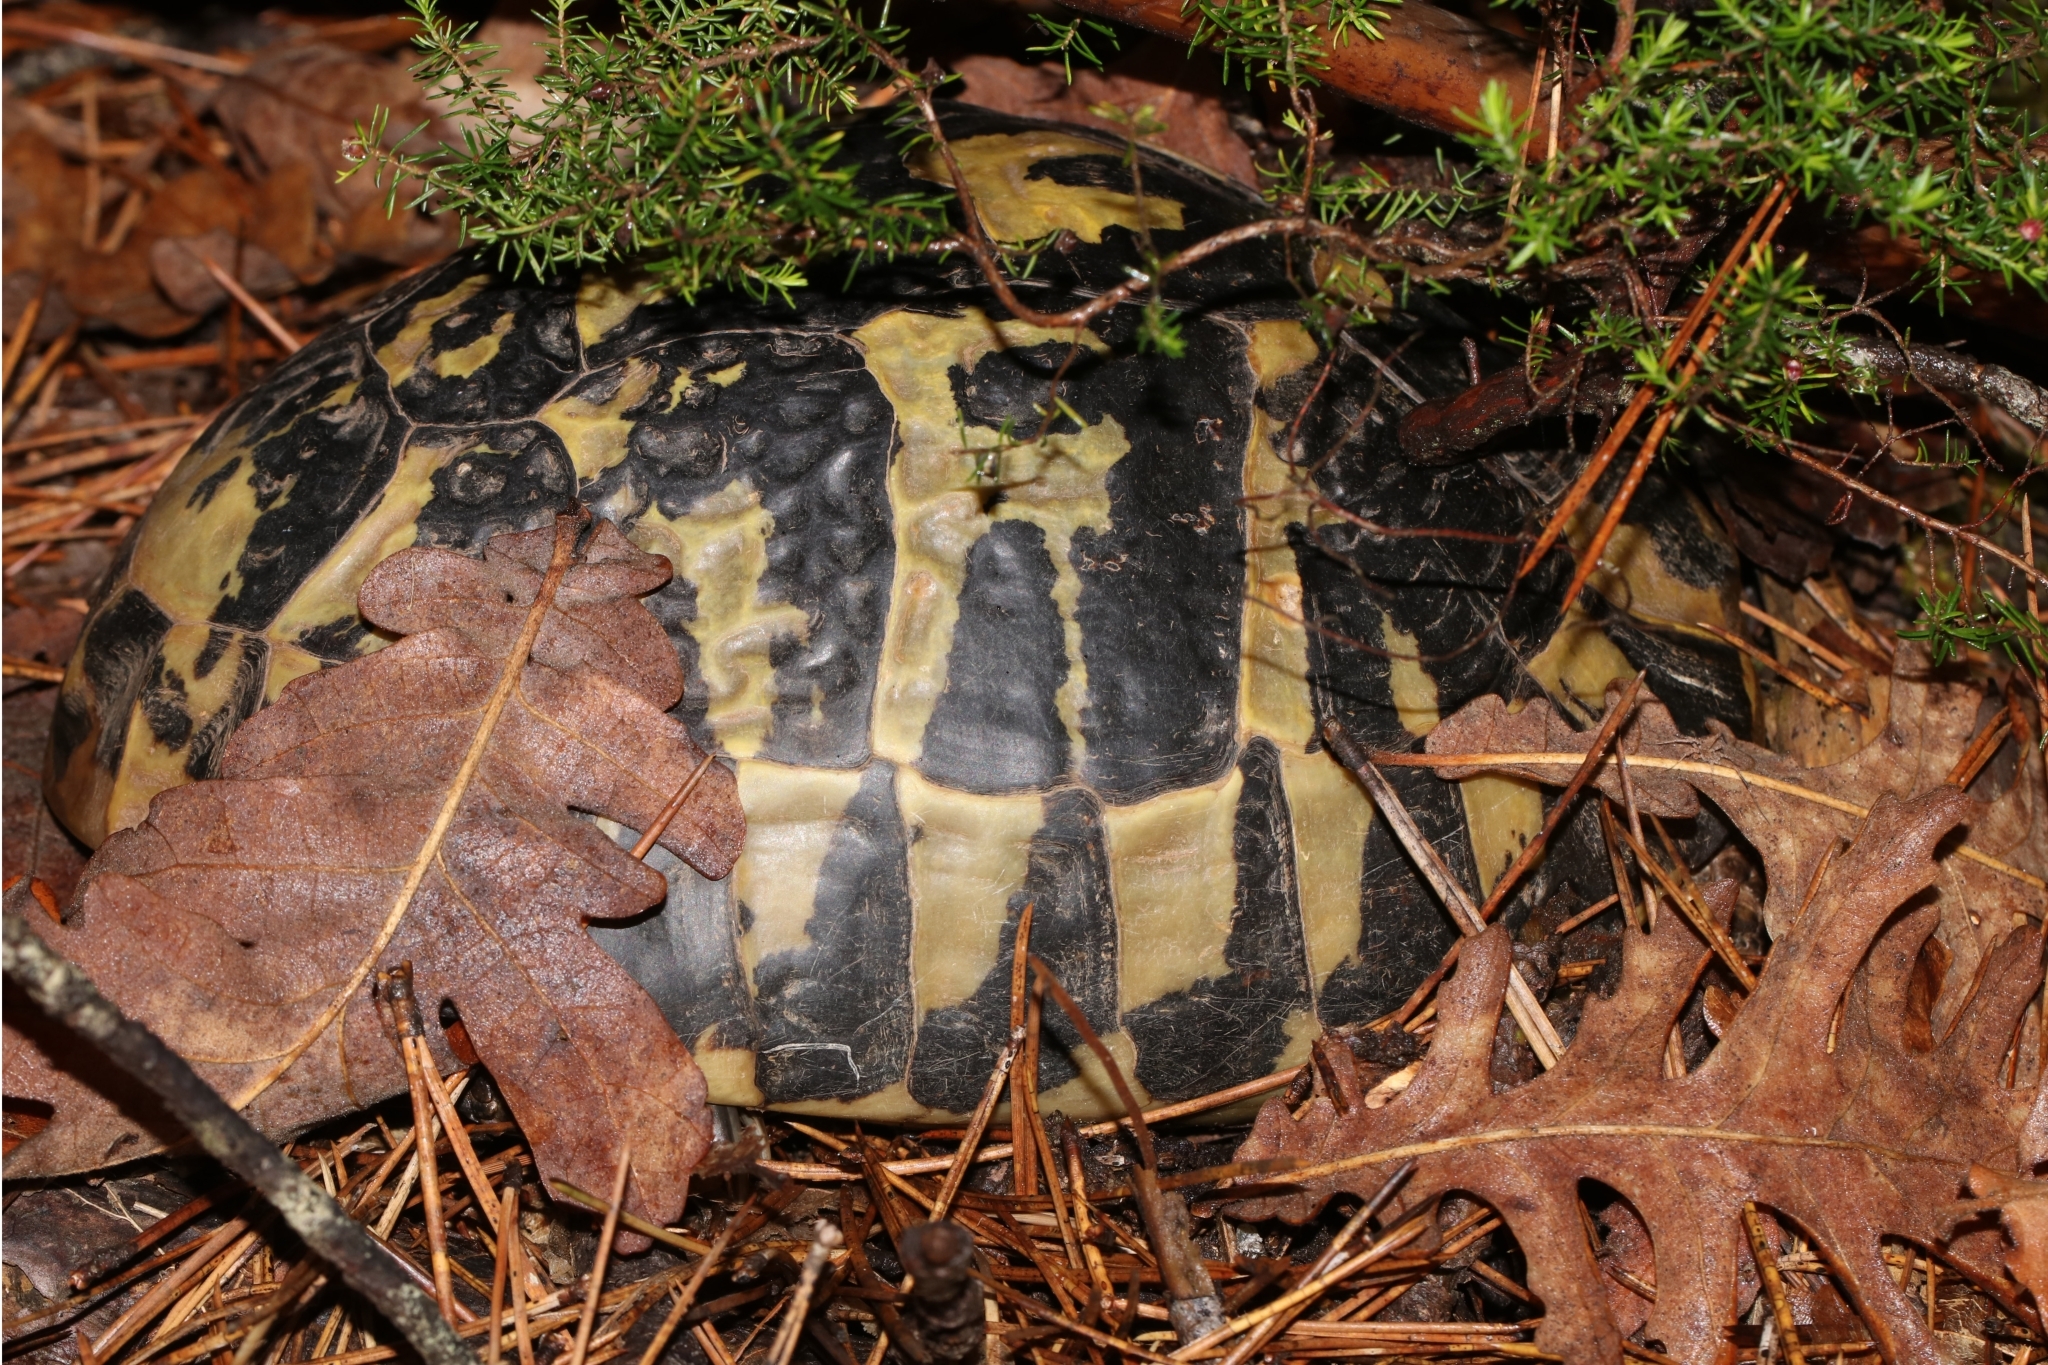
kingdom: Animalia
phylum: Chordata
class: Testudines
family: Testudinidae
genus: Testudo
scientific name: Testudo hermanni
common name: Hermann's tortoise
